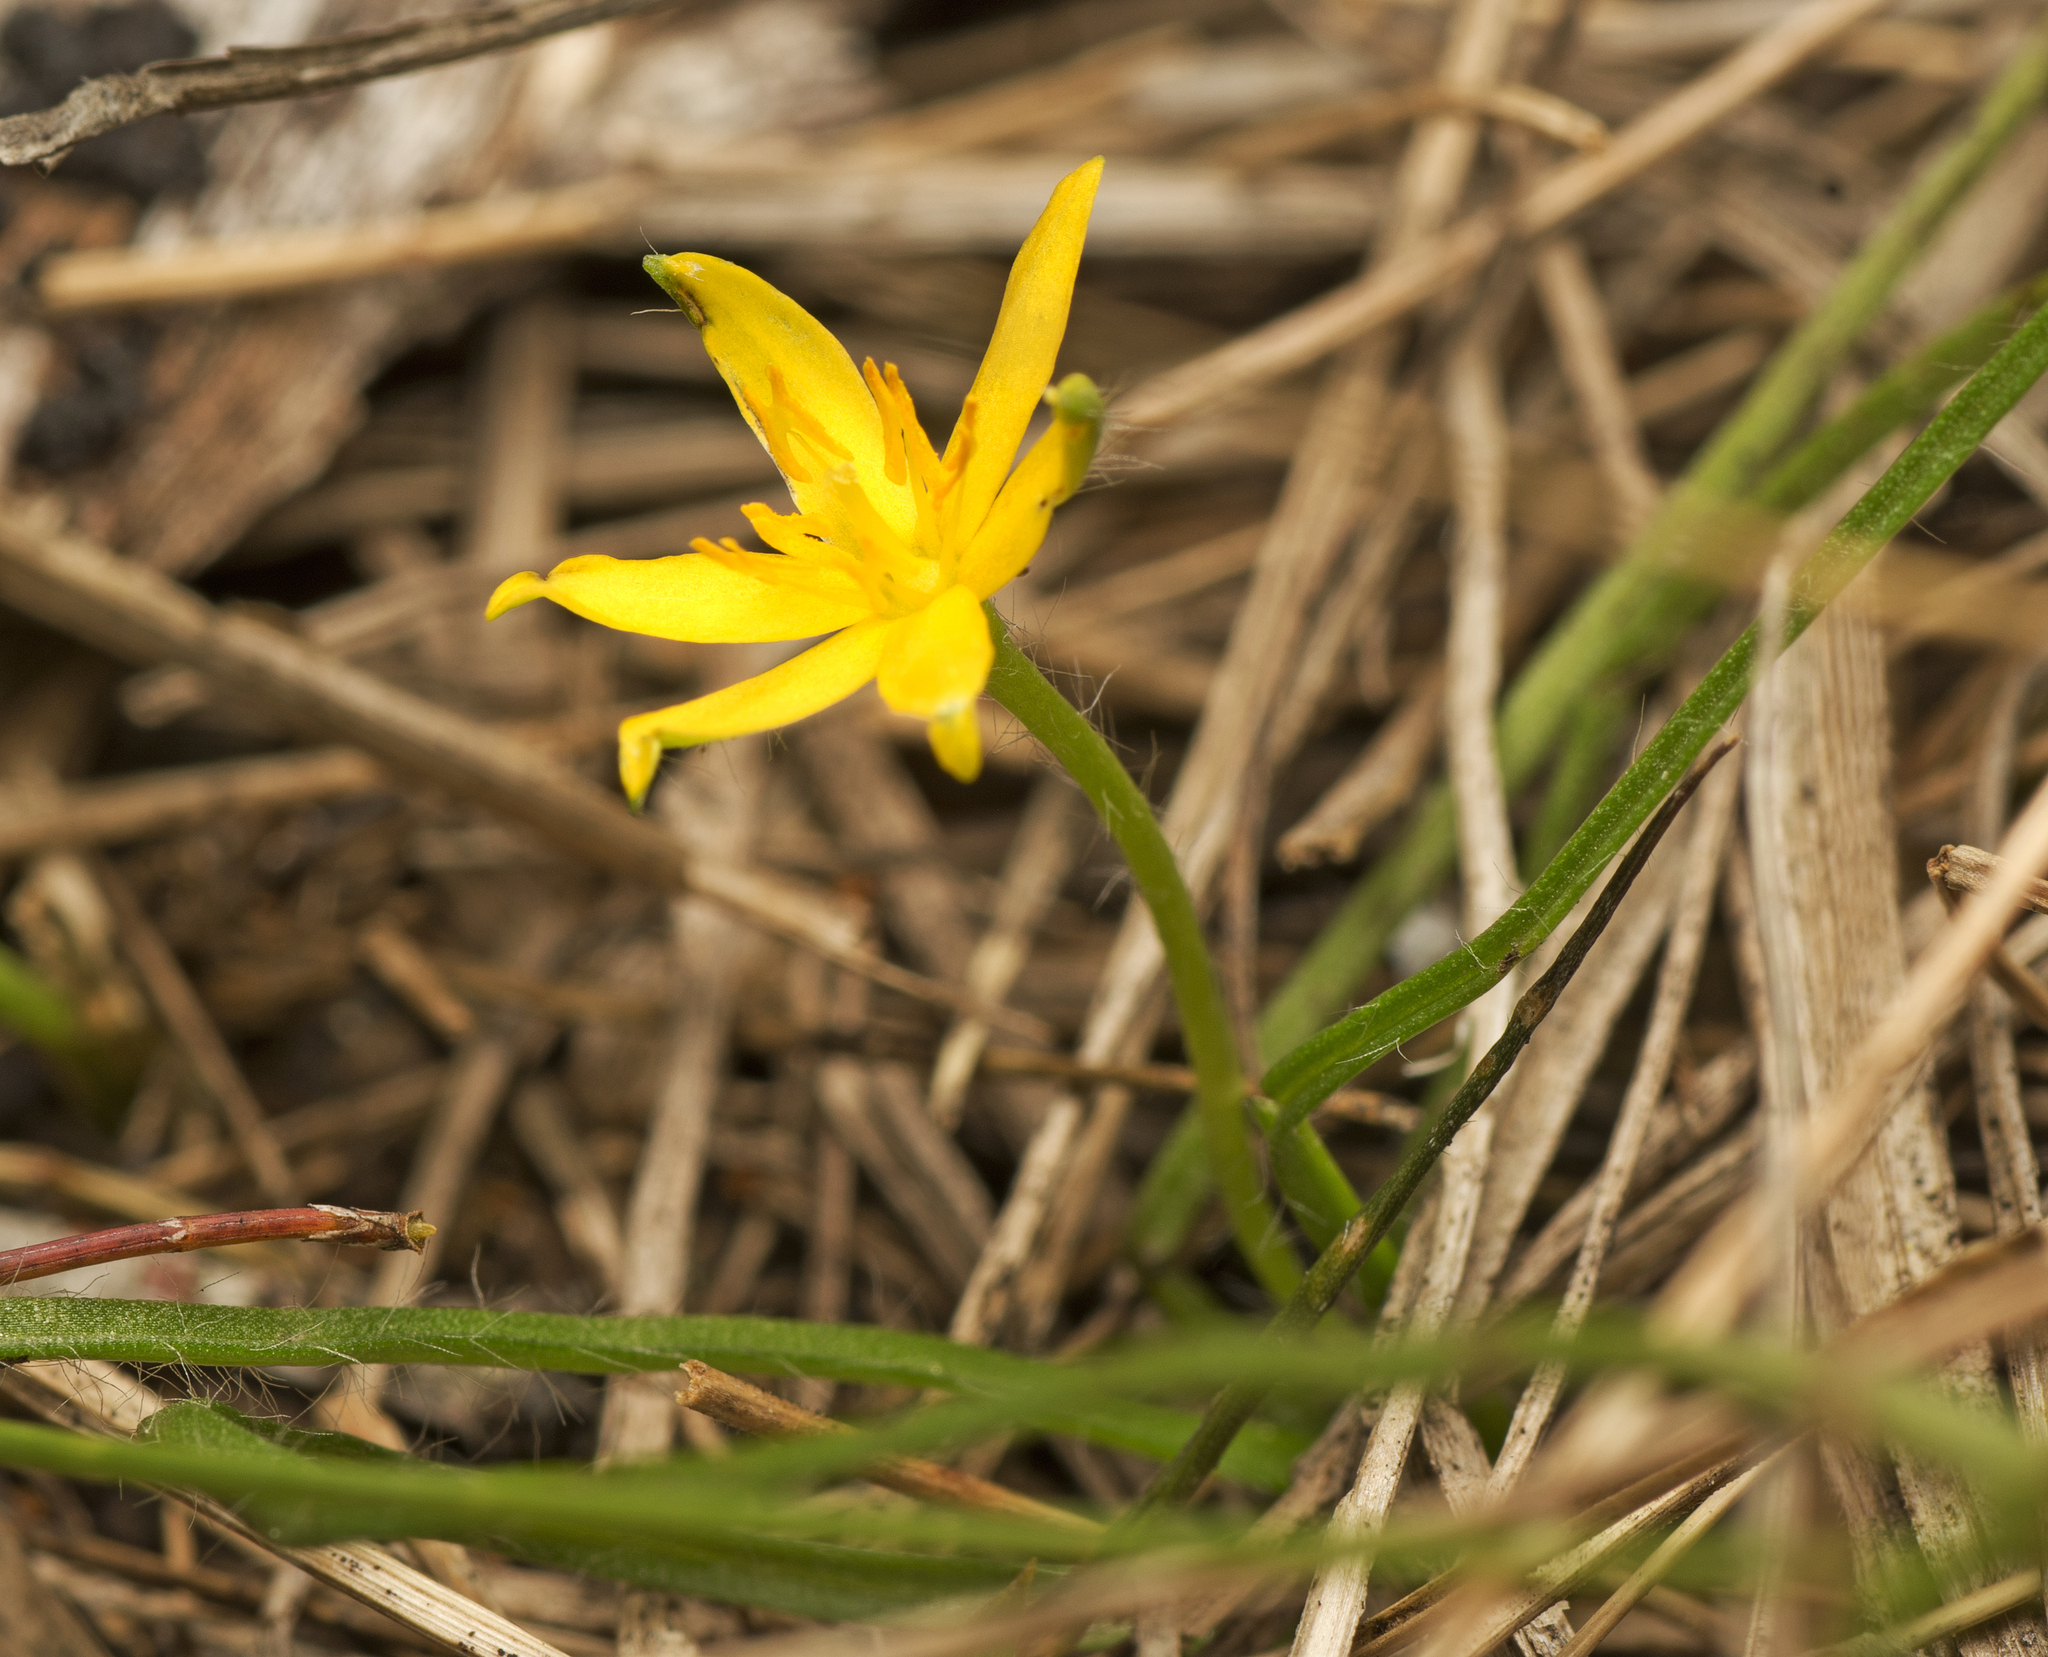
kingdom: Plantae
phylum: Tracheophyta
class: Liliopsida
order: Asparagales
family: Hypoxidaceae
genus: Curculigo
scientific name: Curculigo ensifolia
